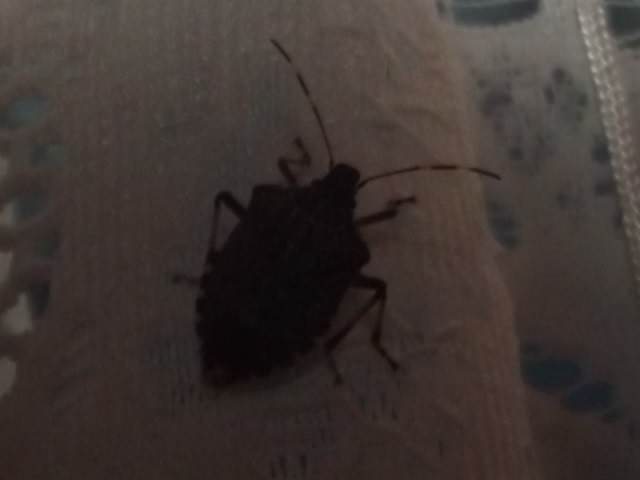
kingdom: Animalia
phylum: Arthropoda
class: Insecta
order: Hemiptera
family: Pentatomidae
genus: Halyomorpha
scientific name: Halyomorpha halys
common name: Brown marmorated stink bug
